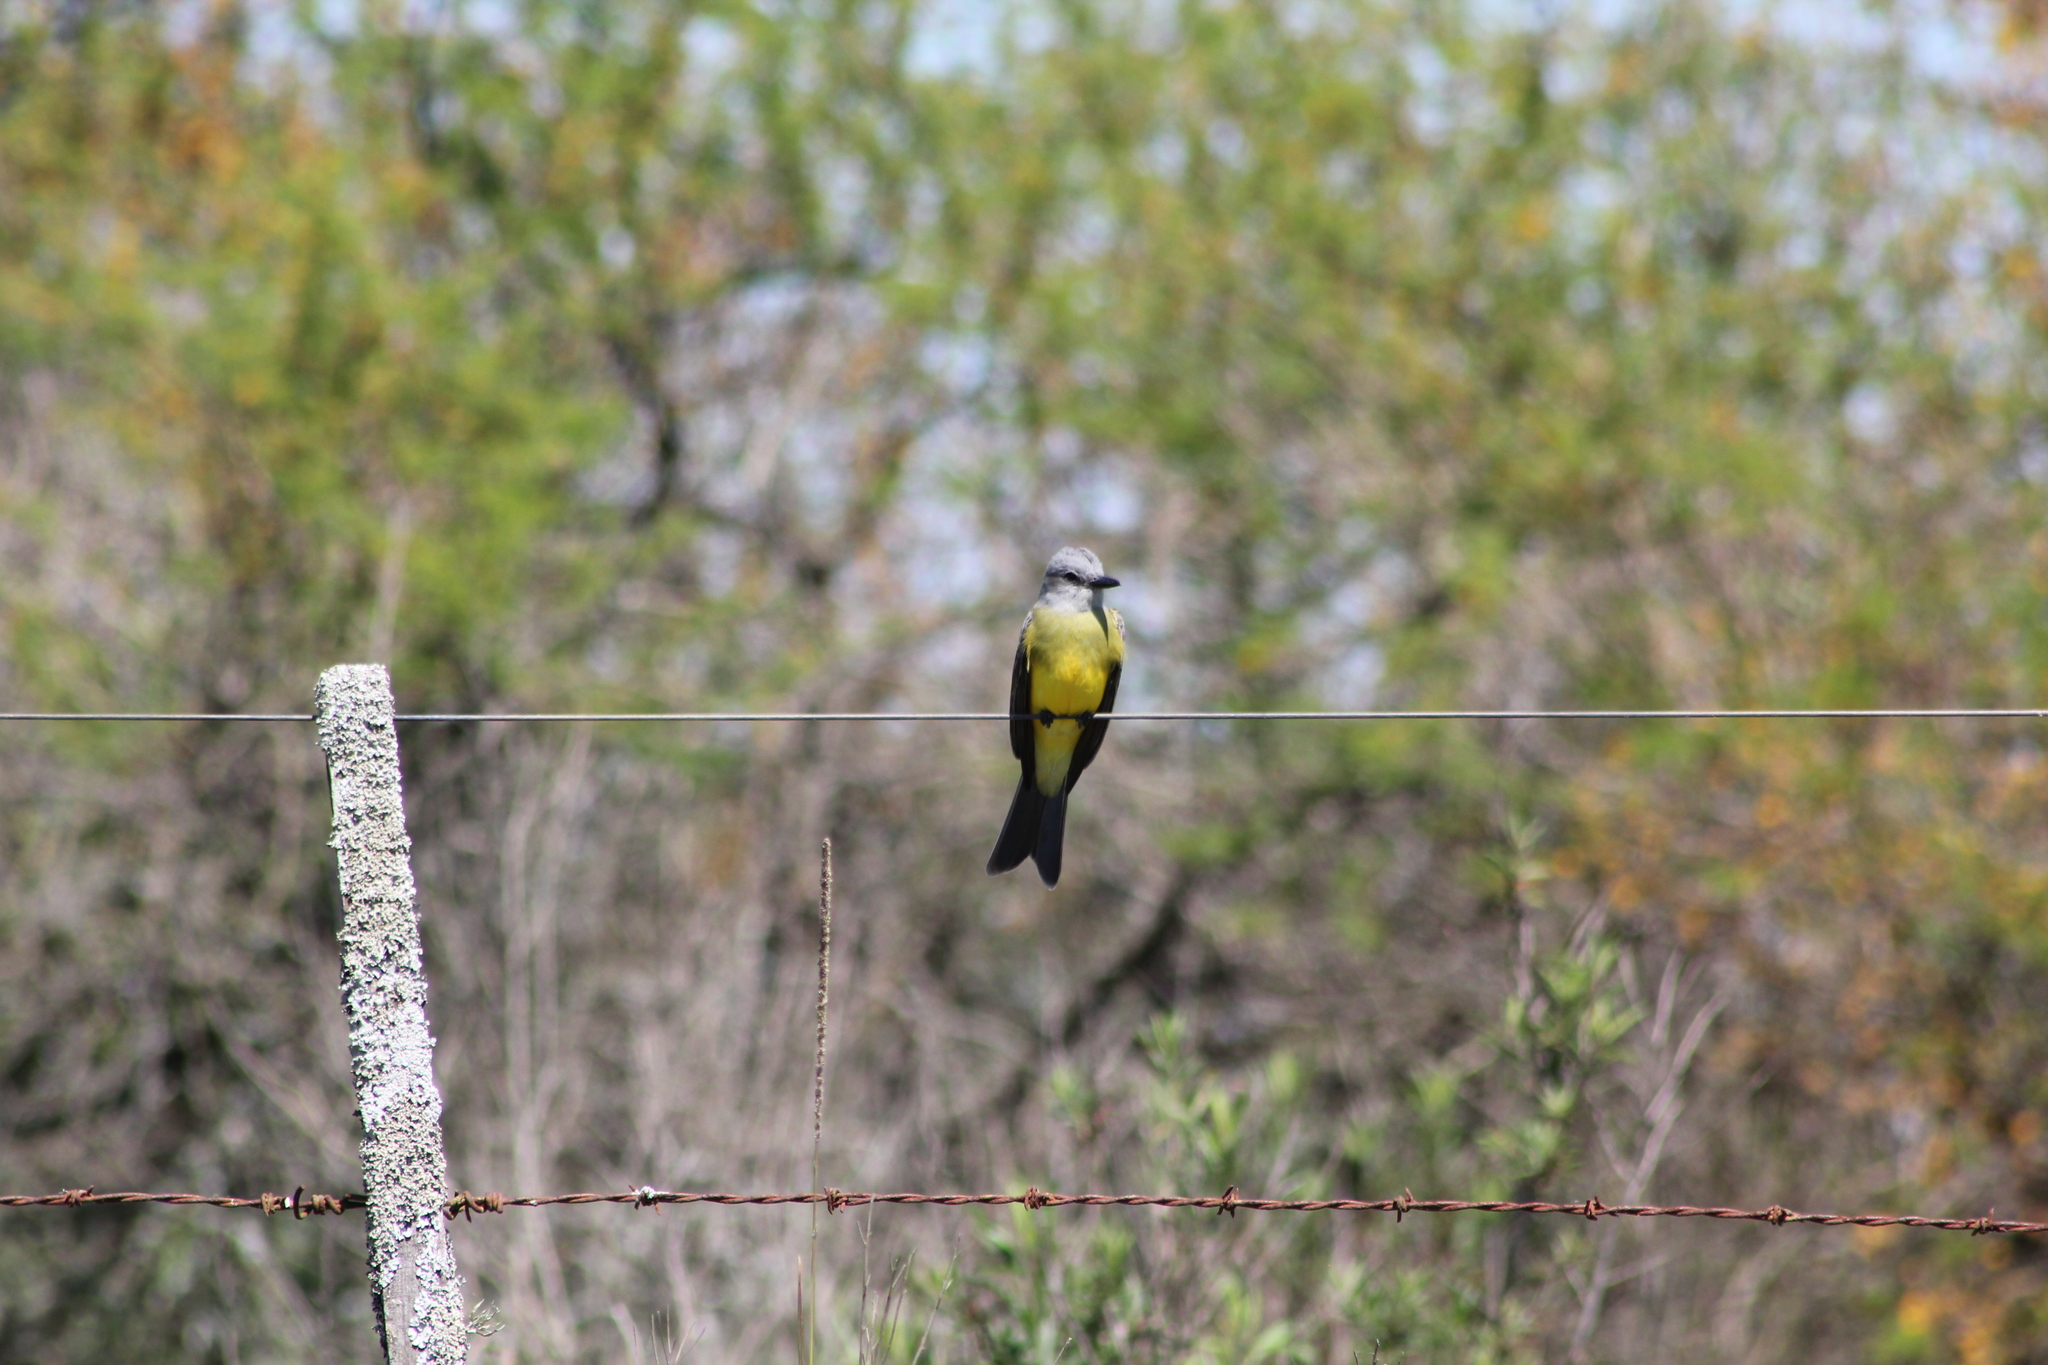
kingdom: Animalia
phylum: Chordata
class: Aves
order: Passeriformes
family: Tyrannidae
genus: Tyrannus
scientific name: Tyrannus melancholicus
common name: Tropical kingbird
